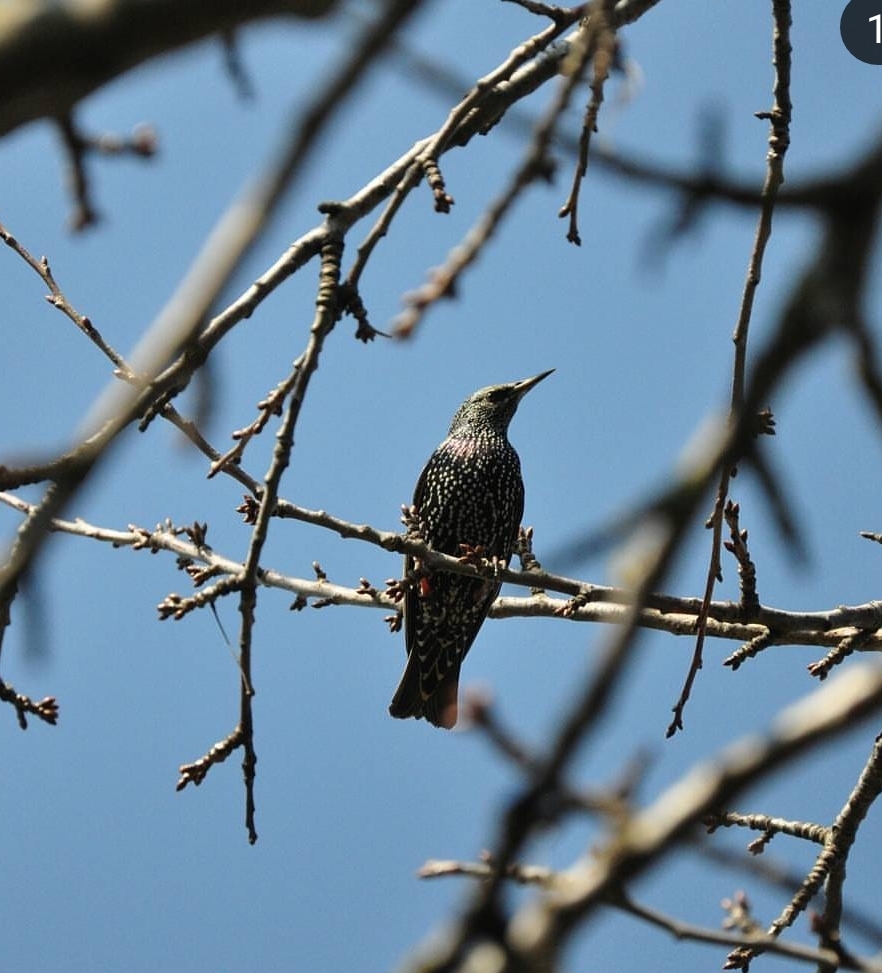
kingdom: Animalia
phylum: Chordata
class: Aves
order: Passeriformes
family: Sturnidae
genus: Sturnus
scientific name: Sturnus vulgaris
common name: Common starling
